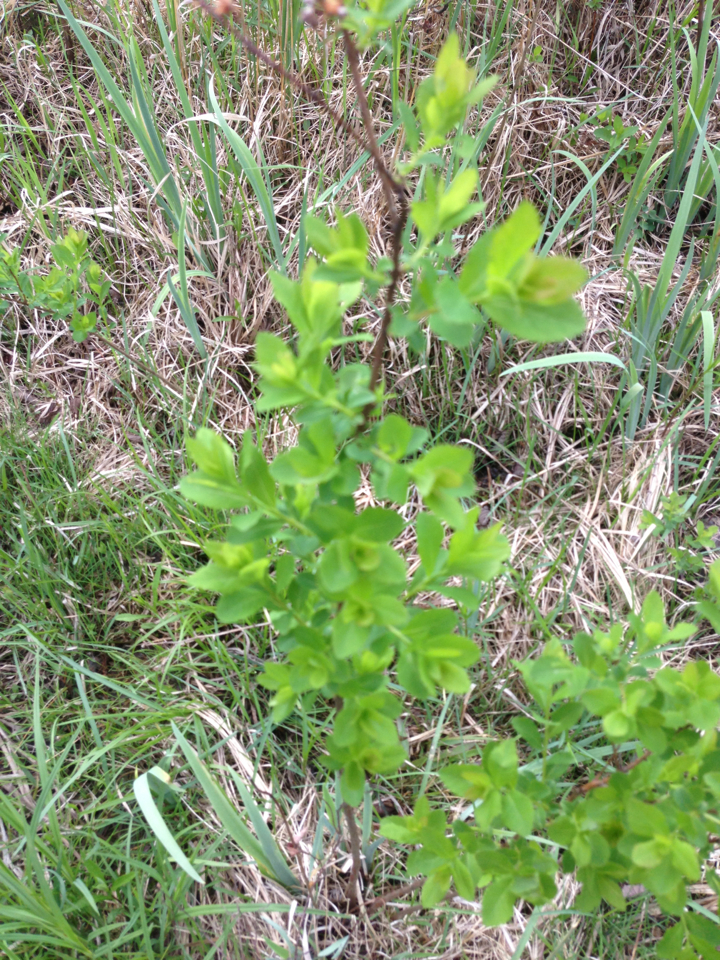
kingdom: Plantae
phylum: Tracheophyta
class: Magnoliopsida
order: Rosales
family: Rosaceae
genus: Spiraea
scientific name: Spiraea alba
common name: Pale bridewort
